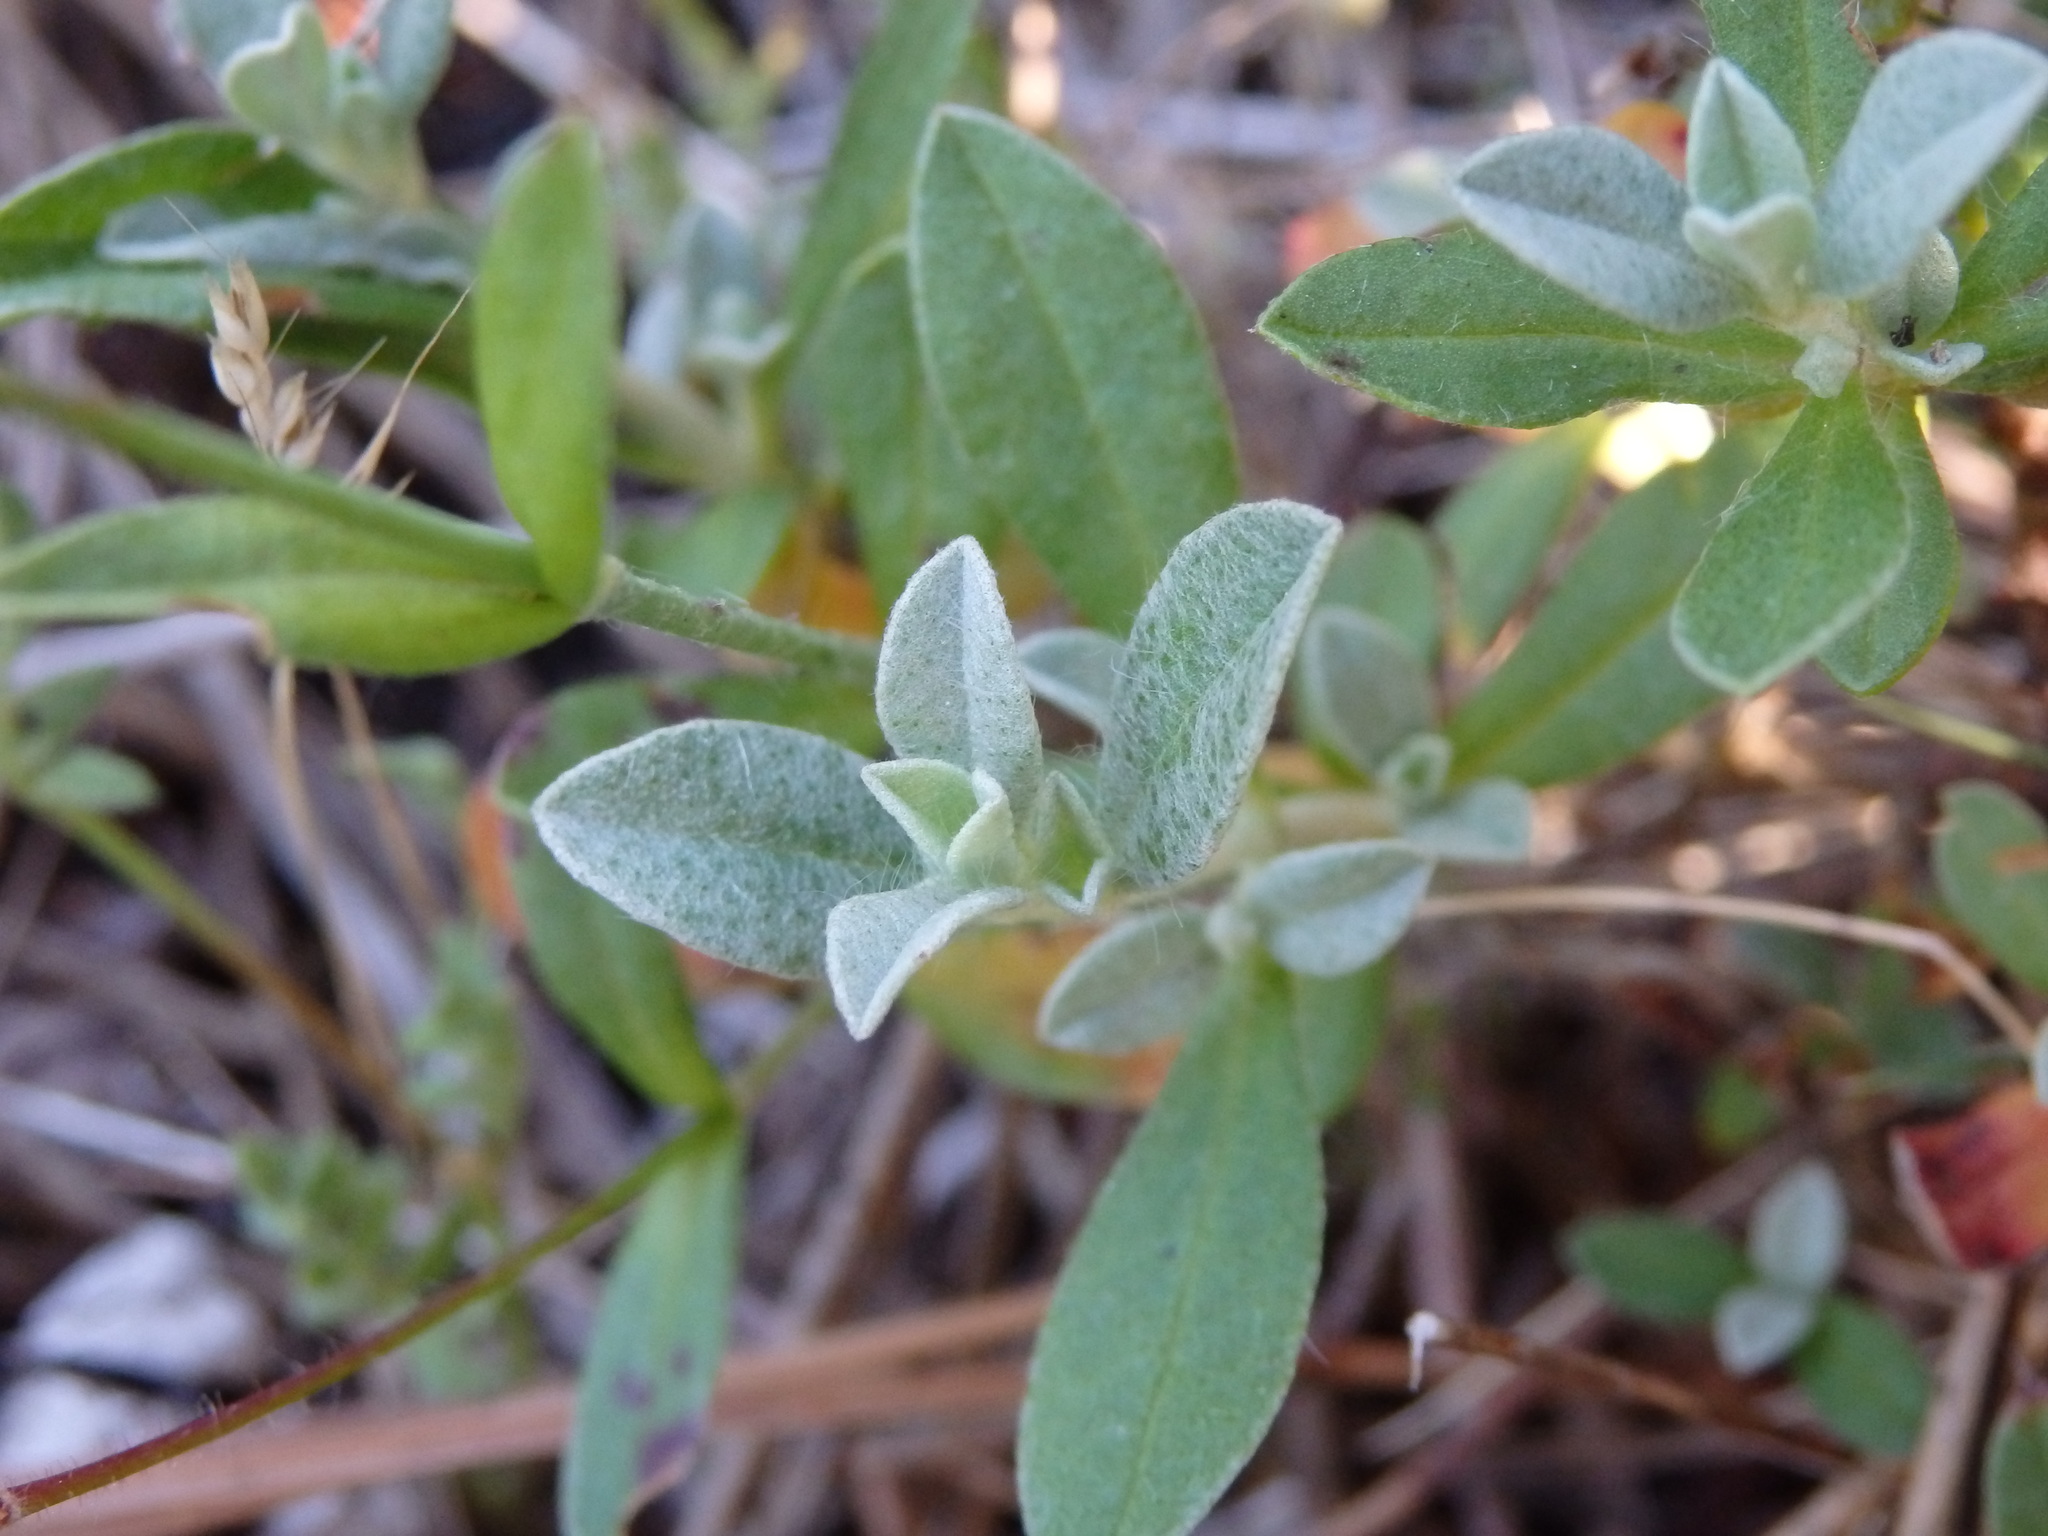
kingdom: Plantae
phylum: Tracheophyta
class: Magnoliopsida
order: Malvales
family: Cistaceae
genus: Cistus
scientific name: Cistus ocymoides
